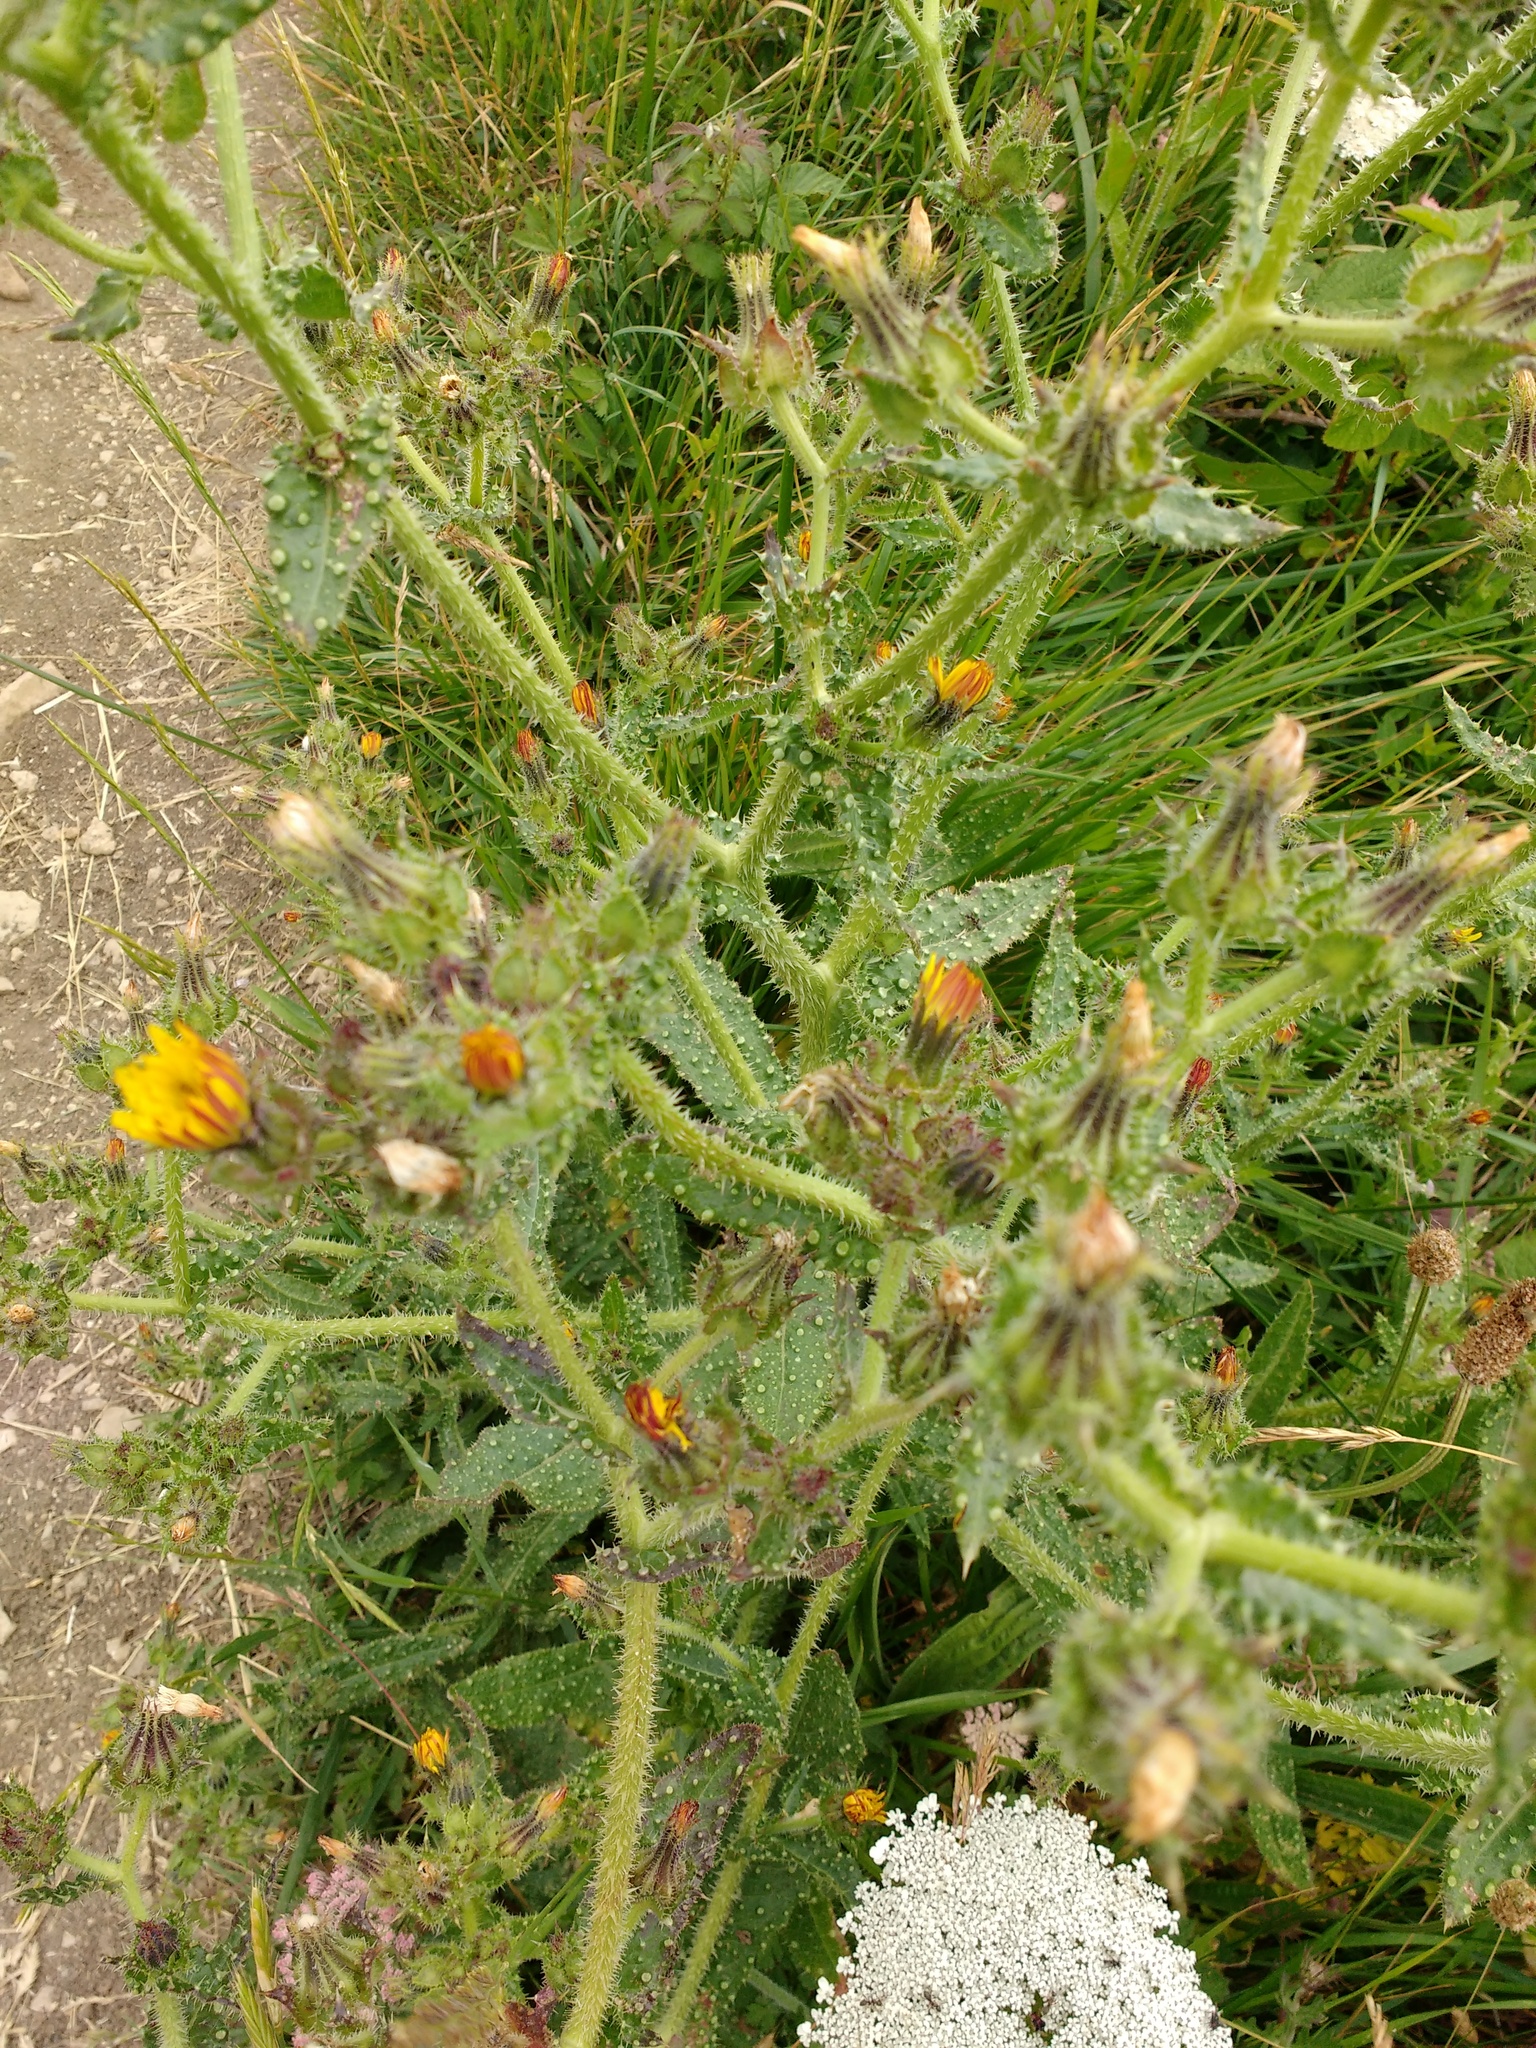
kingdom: Plantae
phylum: Tracheophyta
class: Magnoliopsida
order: Asterales
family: Asteraceae
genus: Helminthotheca
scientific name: Helminthotheca echioides
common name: Ox-tongue
